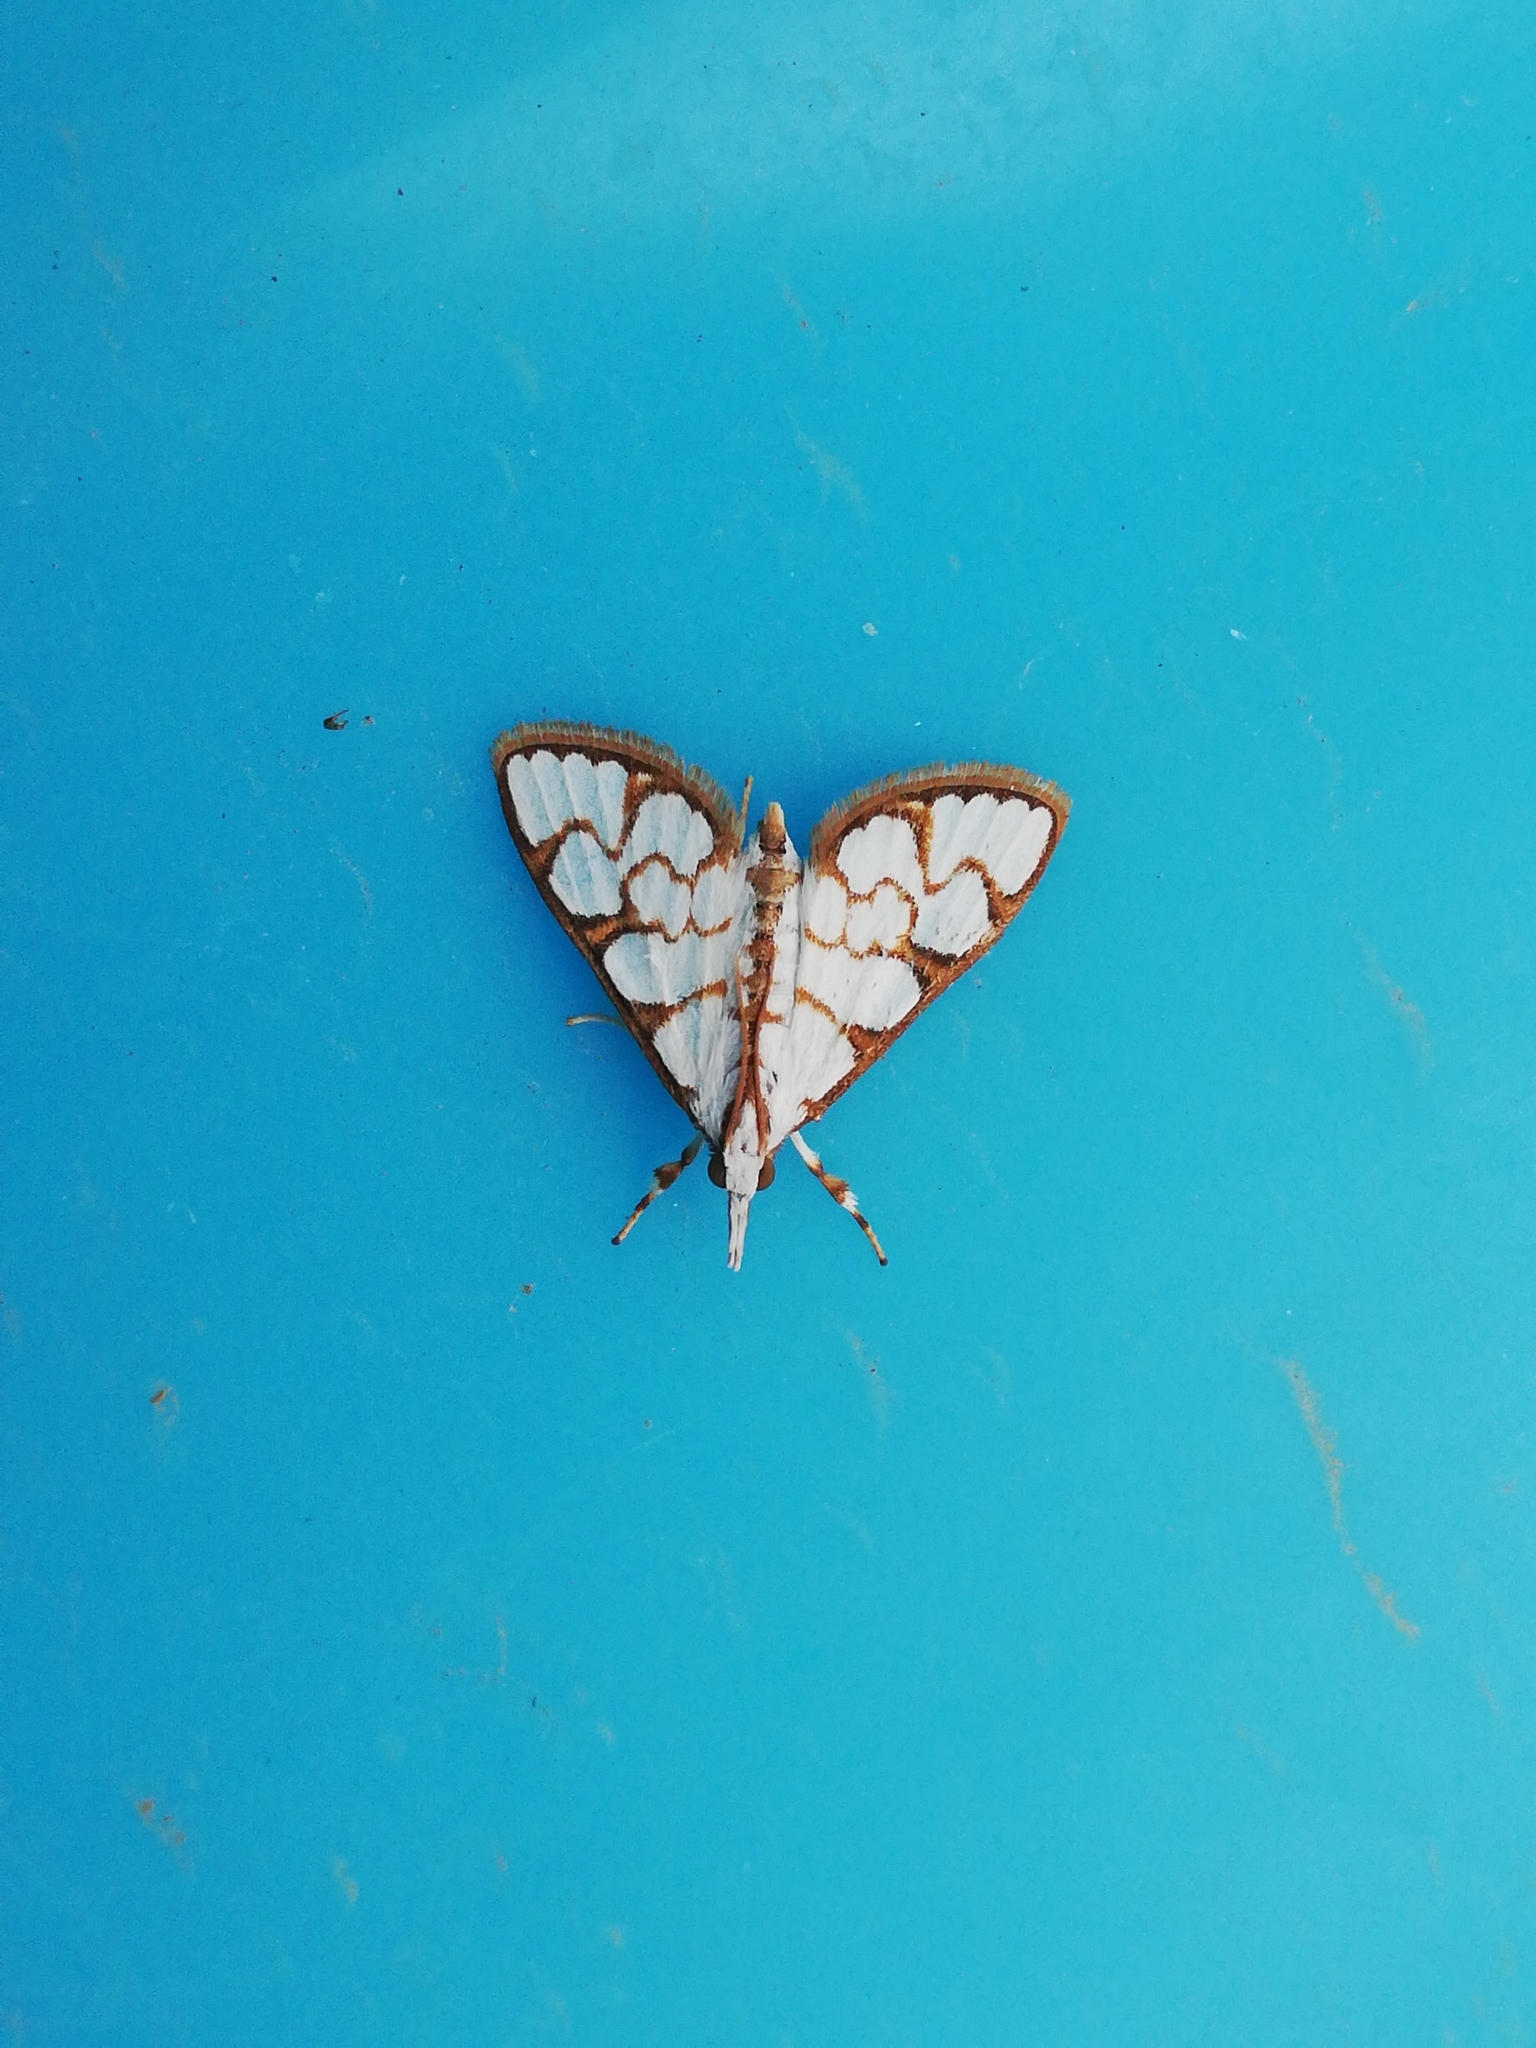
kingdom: Animalia
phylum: Arthropoda
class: Insecta
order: Lepidoptera
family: Crambidae
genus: Cirrhochrista
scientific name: Cirrhochrista grabczewskyi
